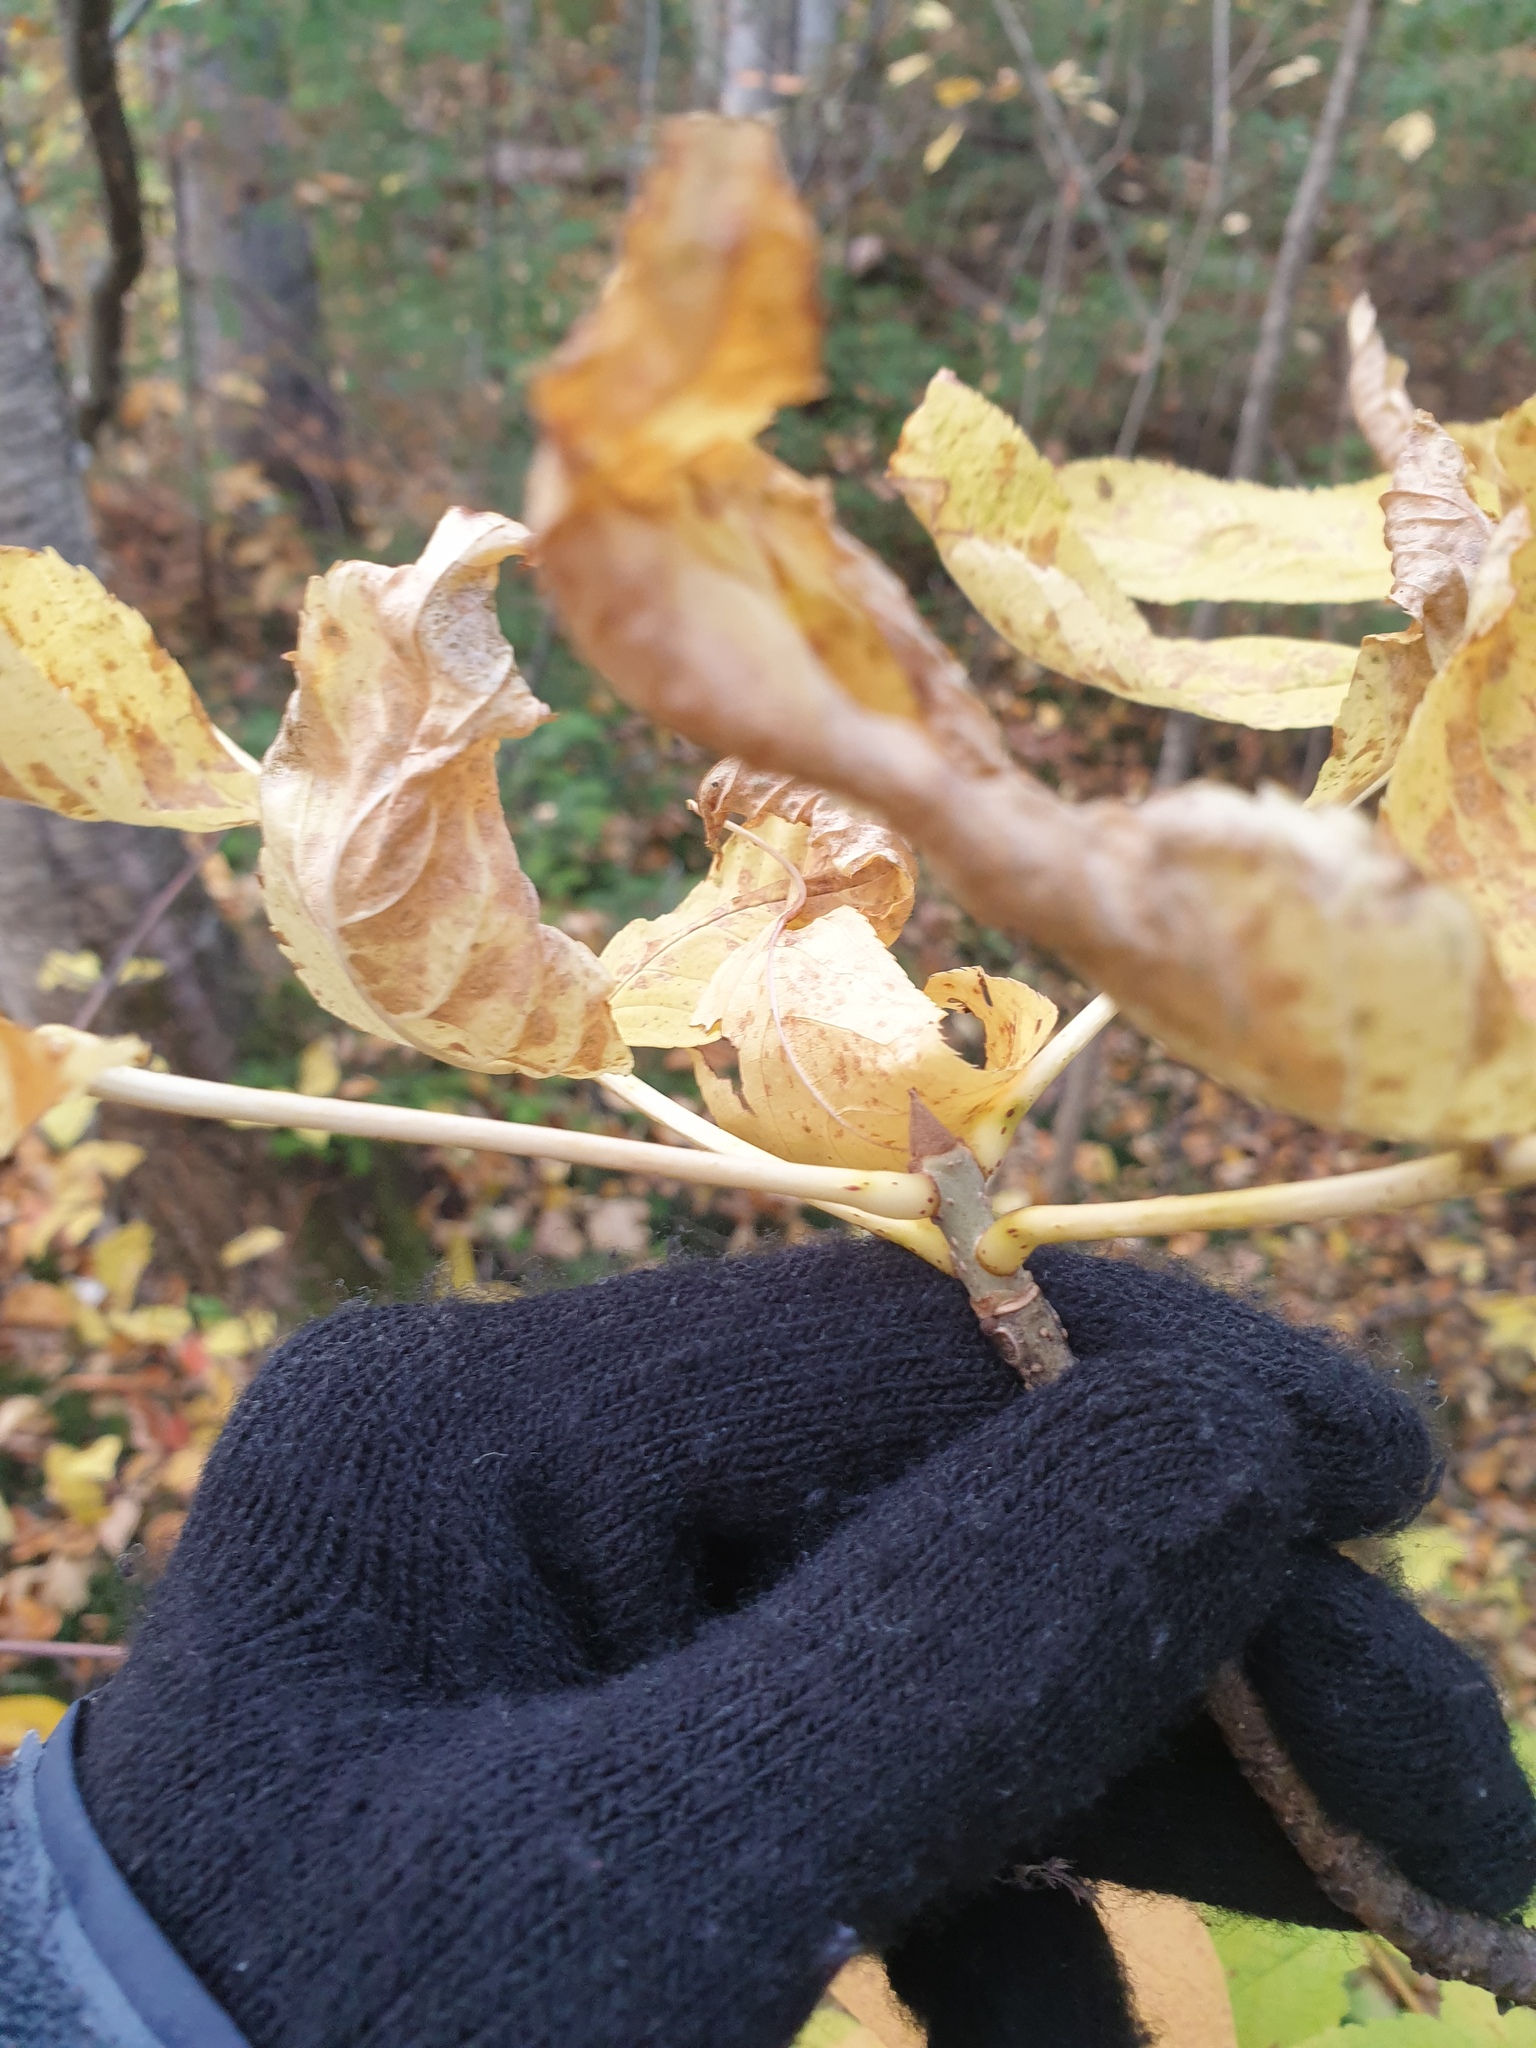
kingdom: Plantae
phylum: Tracheophyta
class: Magnoliopsida
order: Lamiales
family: Oleaceae
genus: Fraxinus
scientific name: Fraxinus nigra
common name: Black ash
